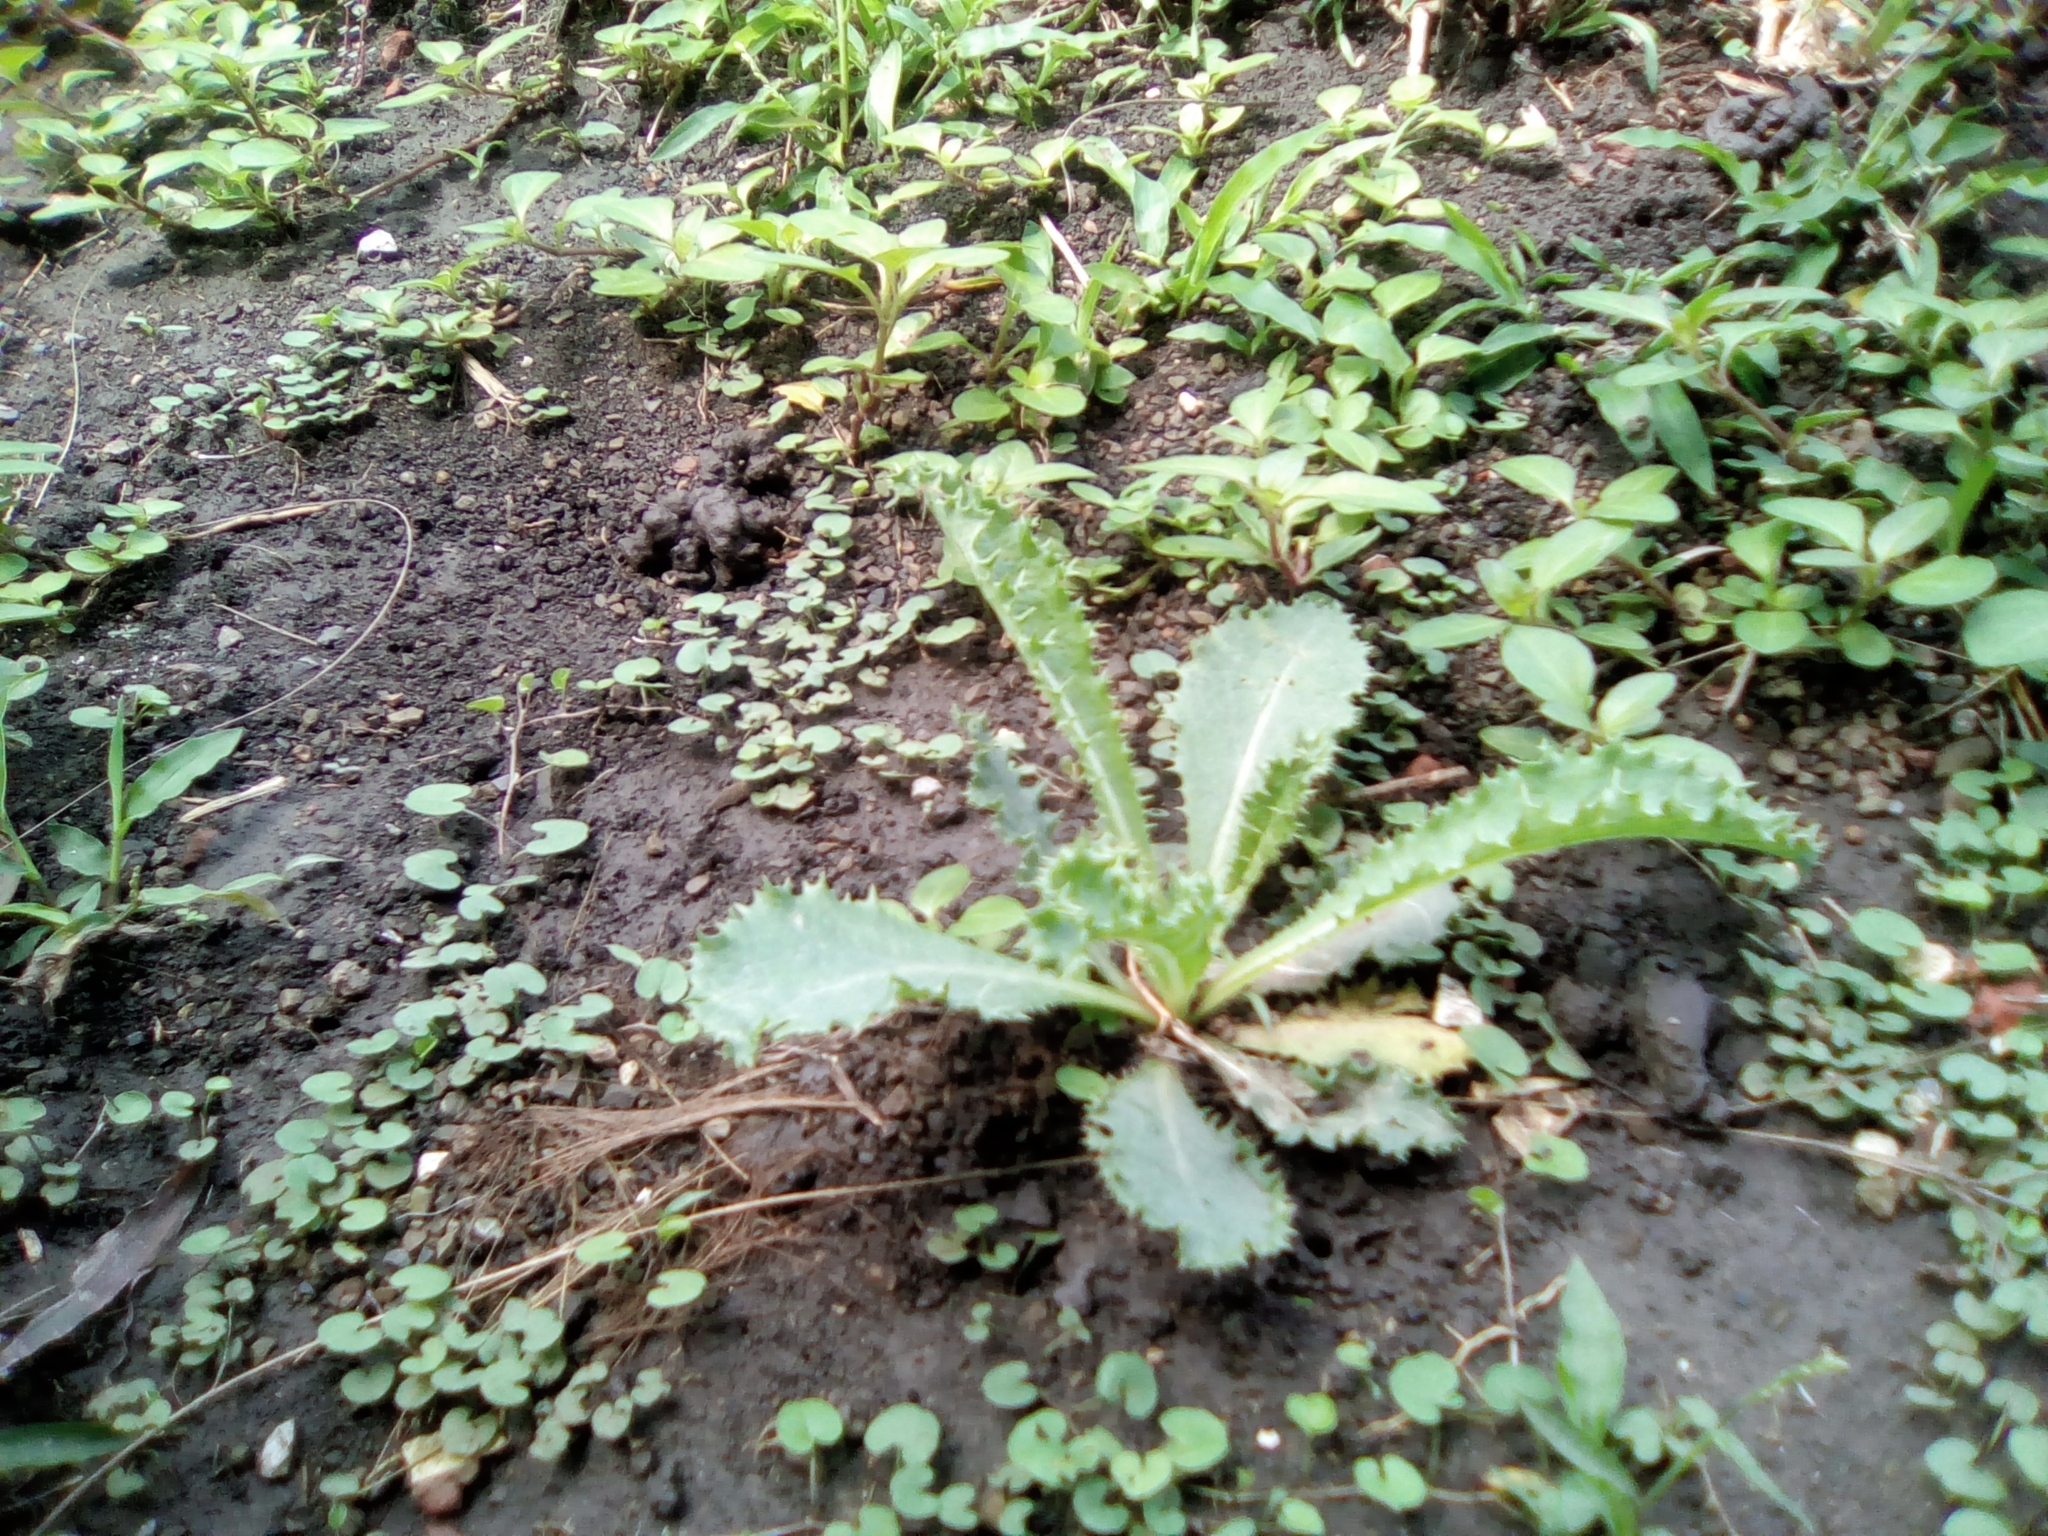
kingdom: Plantae
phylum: Tracheophyta
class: Magnoliopsida
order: Asterales
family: Asteraceae
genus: Sonchus
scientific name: Sonchus asper
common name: Prickly sow-thistle
